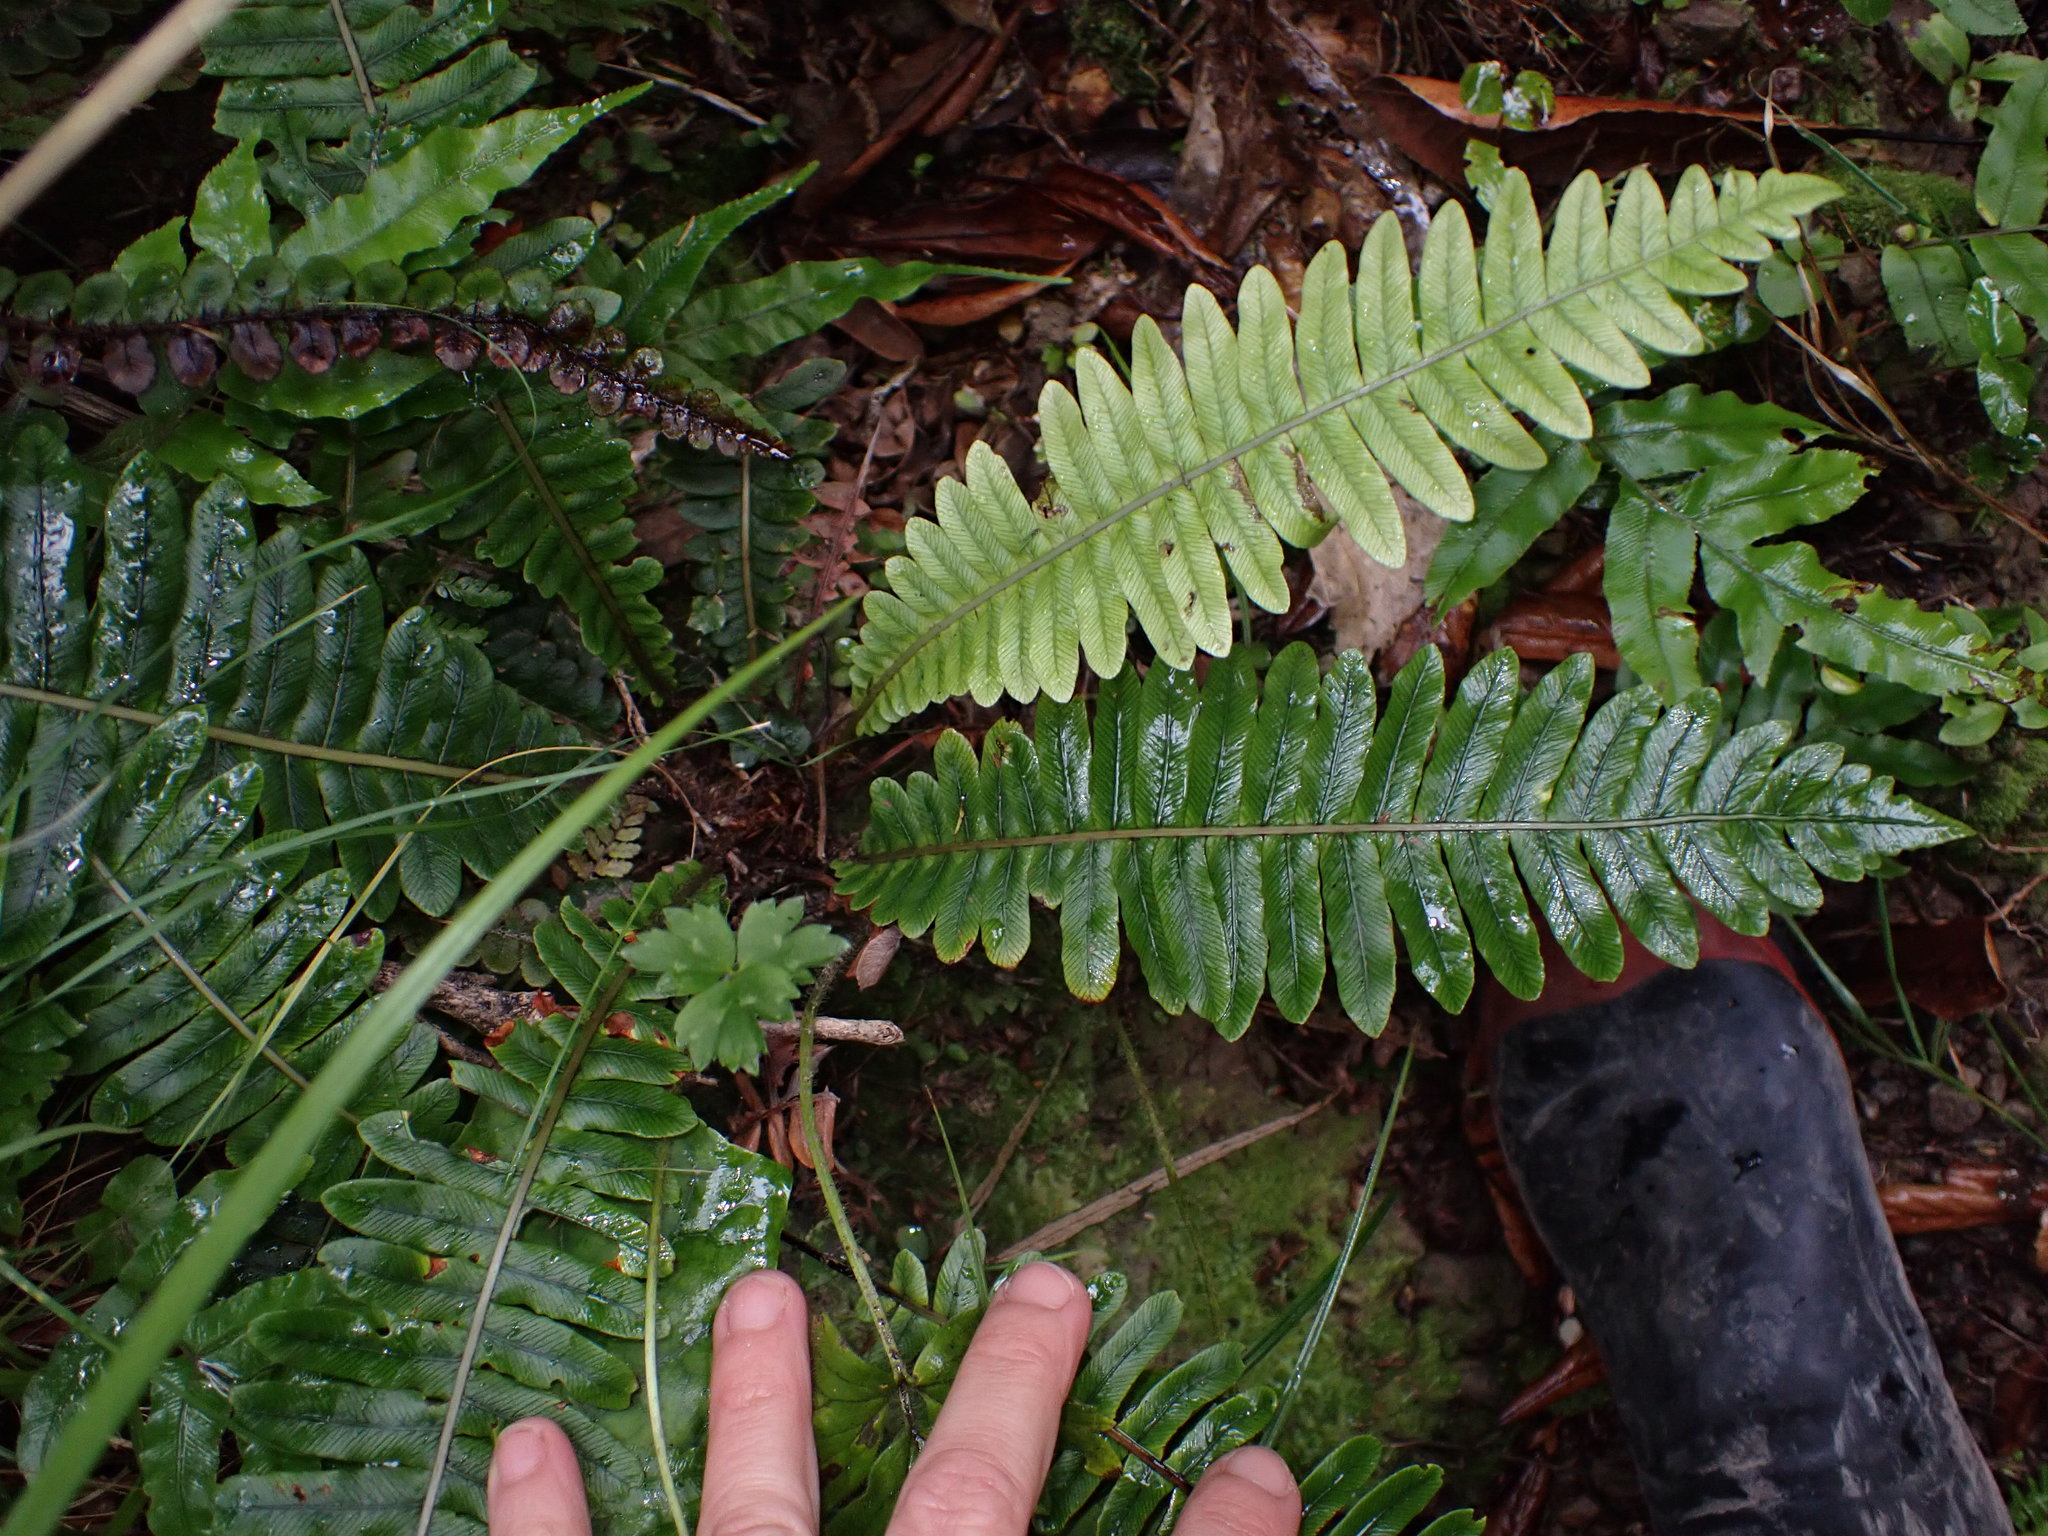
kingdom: Plantae
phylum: Tracheophyta
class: Polypodiopsida
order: Polypodiales
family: Blechnaceae
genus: Lomaria
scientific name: Lomaria discolor
